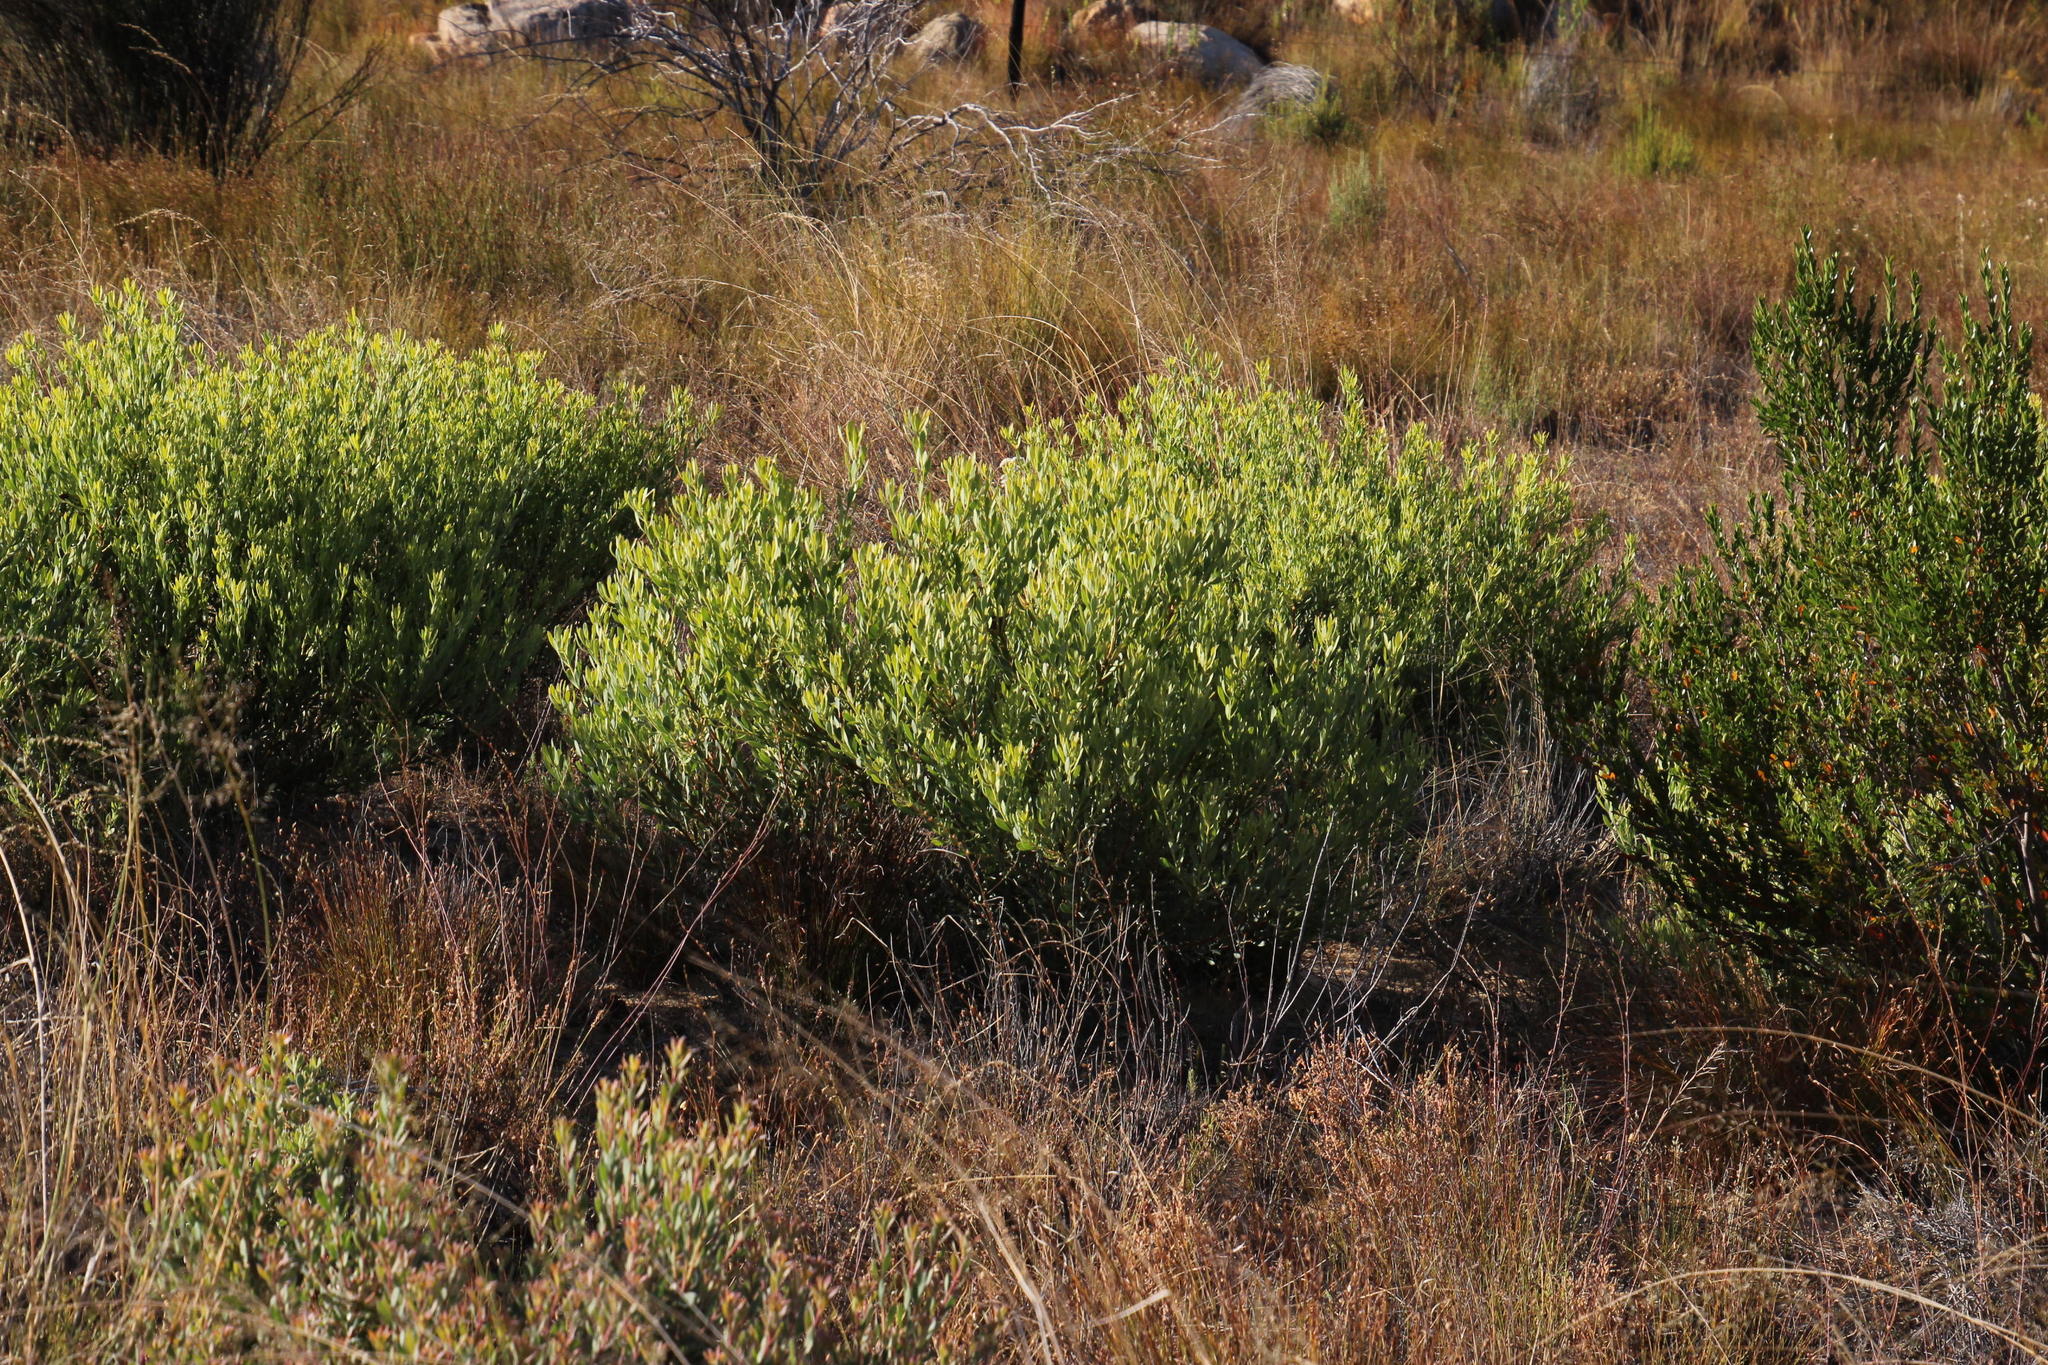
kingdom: Plantae
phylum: Tracheophyta
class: Magnoliopsida
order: Proteales
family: Proteaceae
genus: Leucadendron
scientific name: Leucadendron glaberrimum
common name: Common oily conebush
